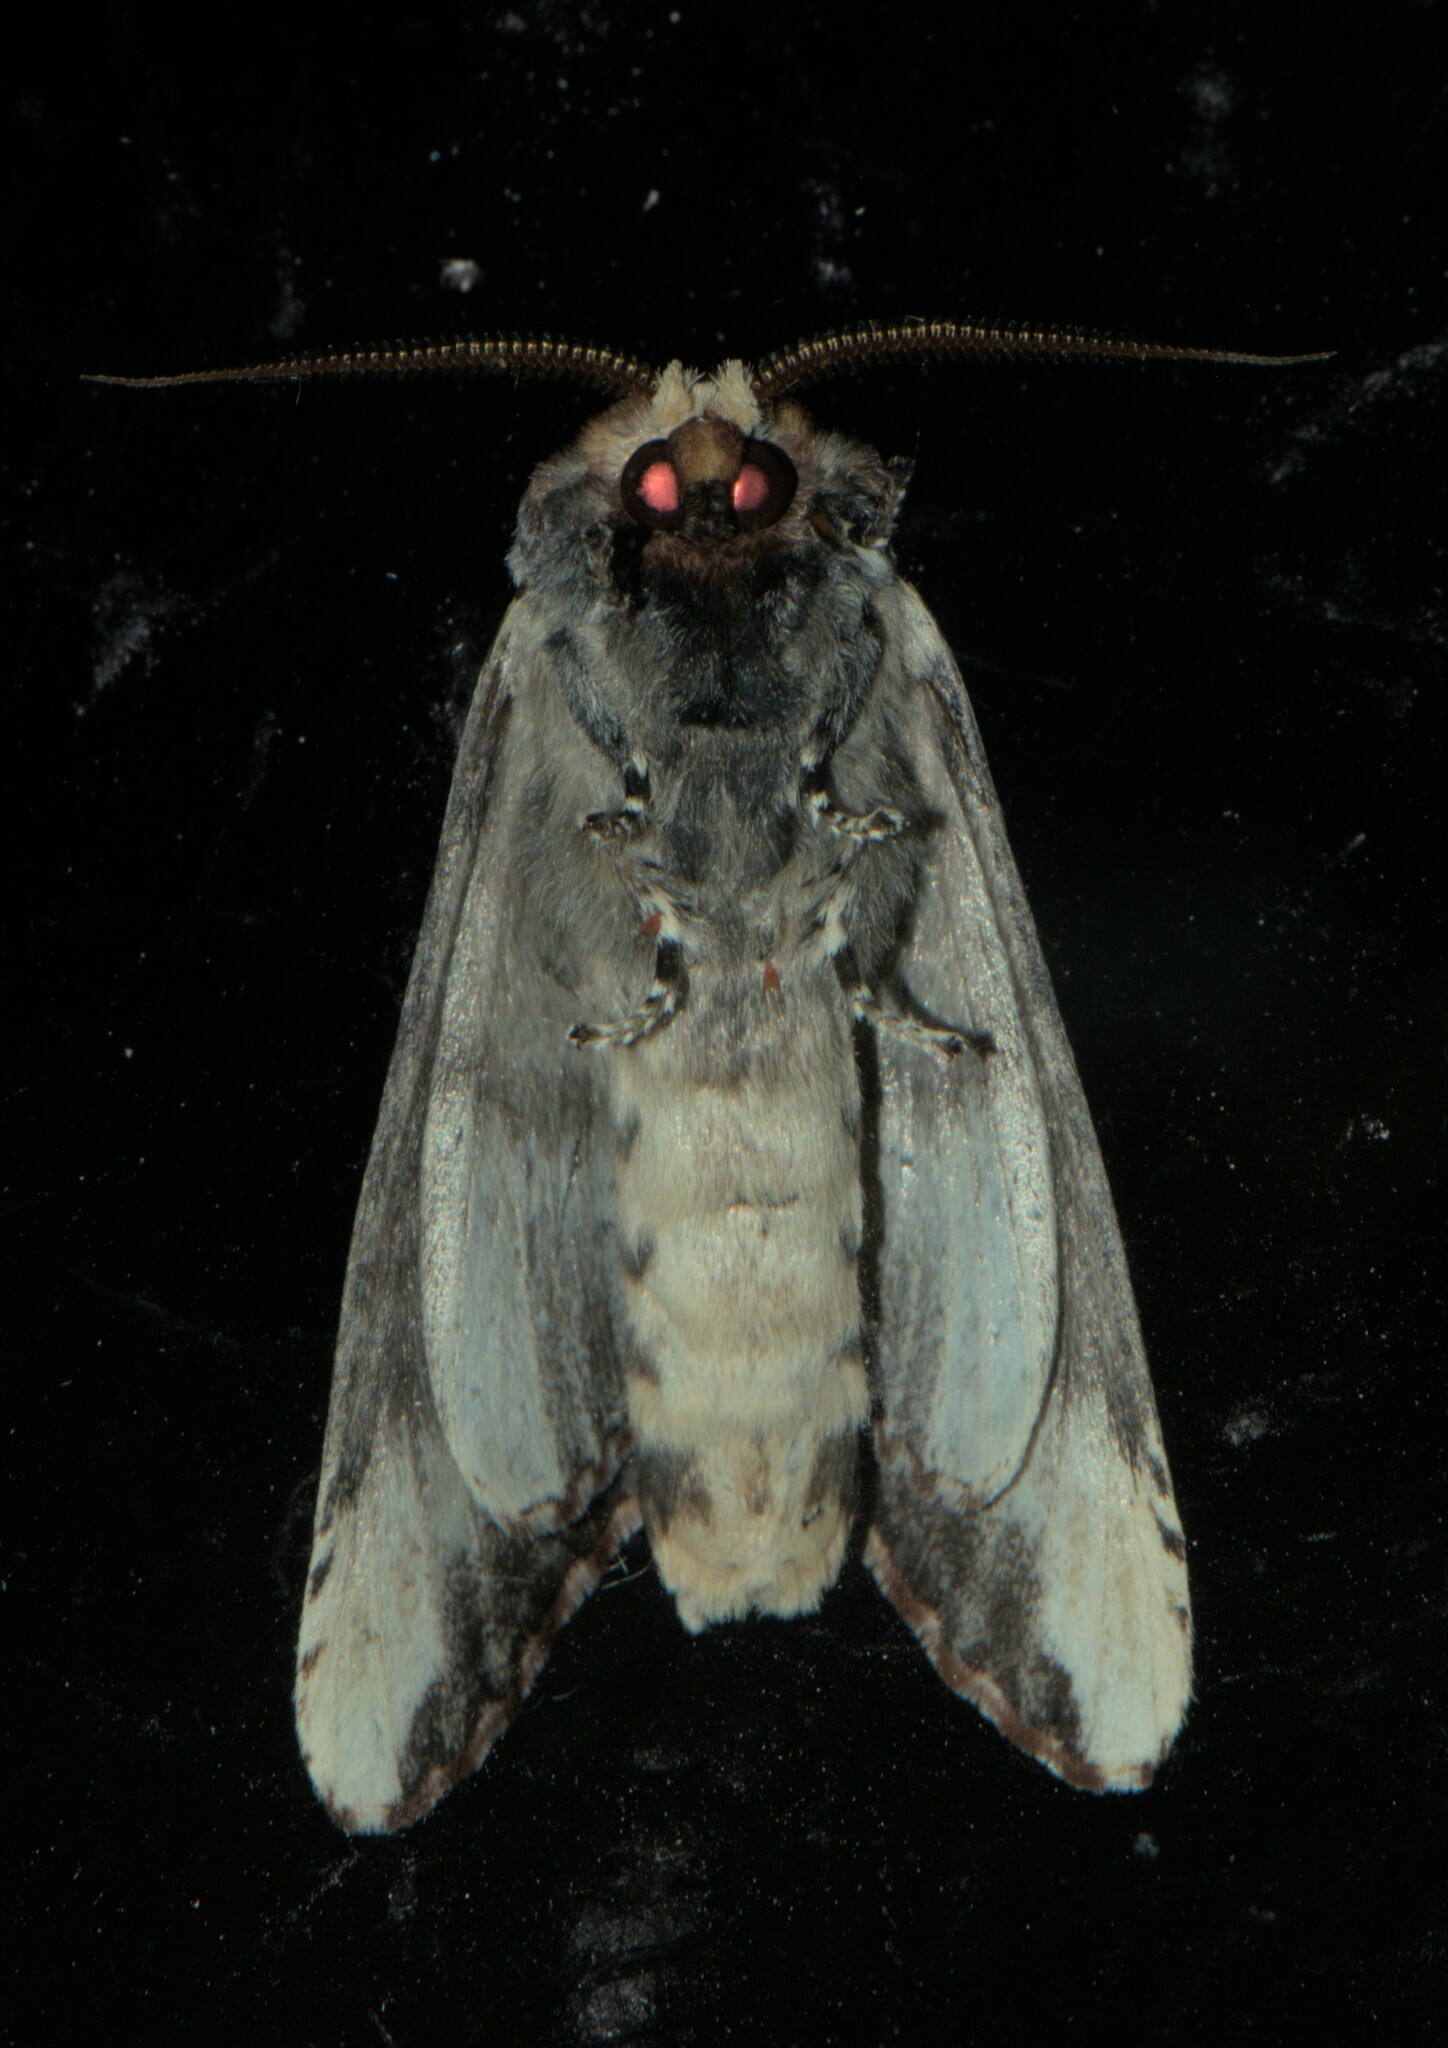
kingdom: Animalia
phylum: Arthropoda
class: Insecta
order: Lepidoptera
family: Notodontidae
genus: Phalera
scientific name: Phalera grotei
